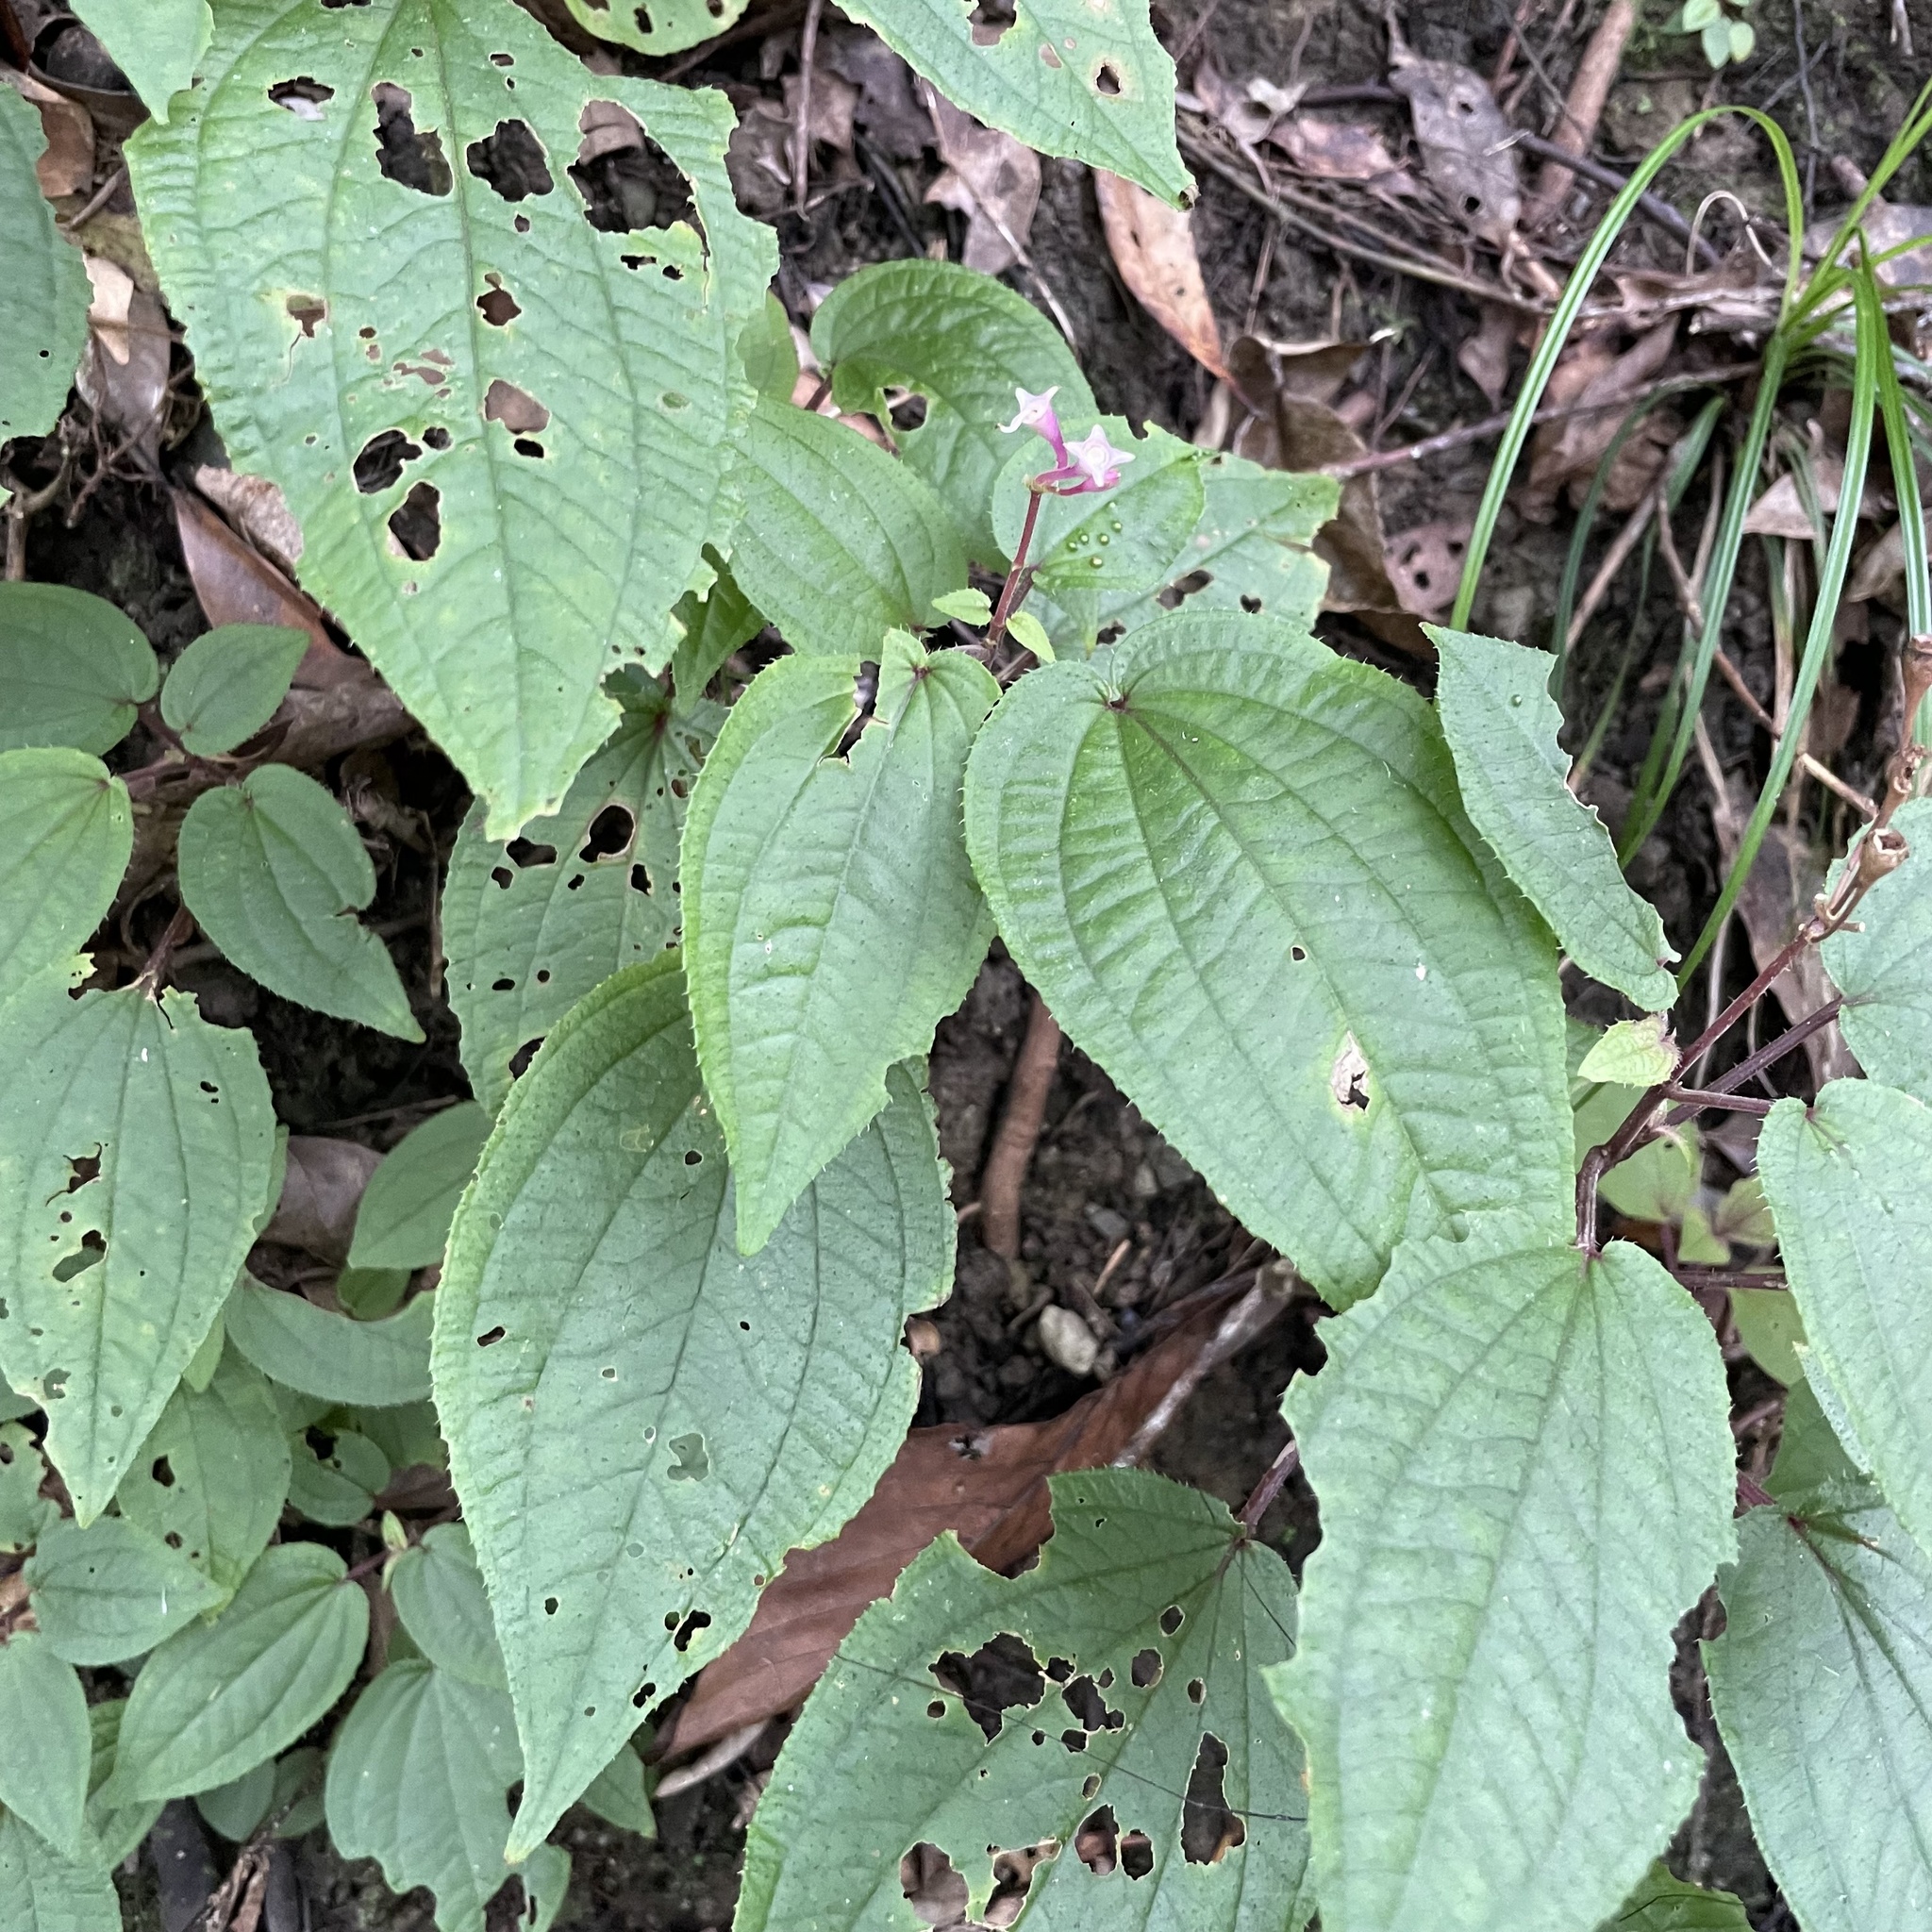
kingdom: Plantae
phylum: Tracheophyta
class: Magnoliopsida
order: Myrtales
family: Melastomataceae
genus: Bredia
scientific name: Bredia hirsuta
